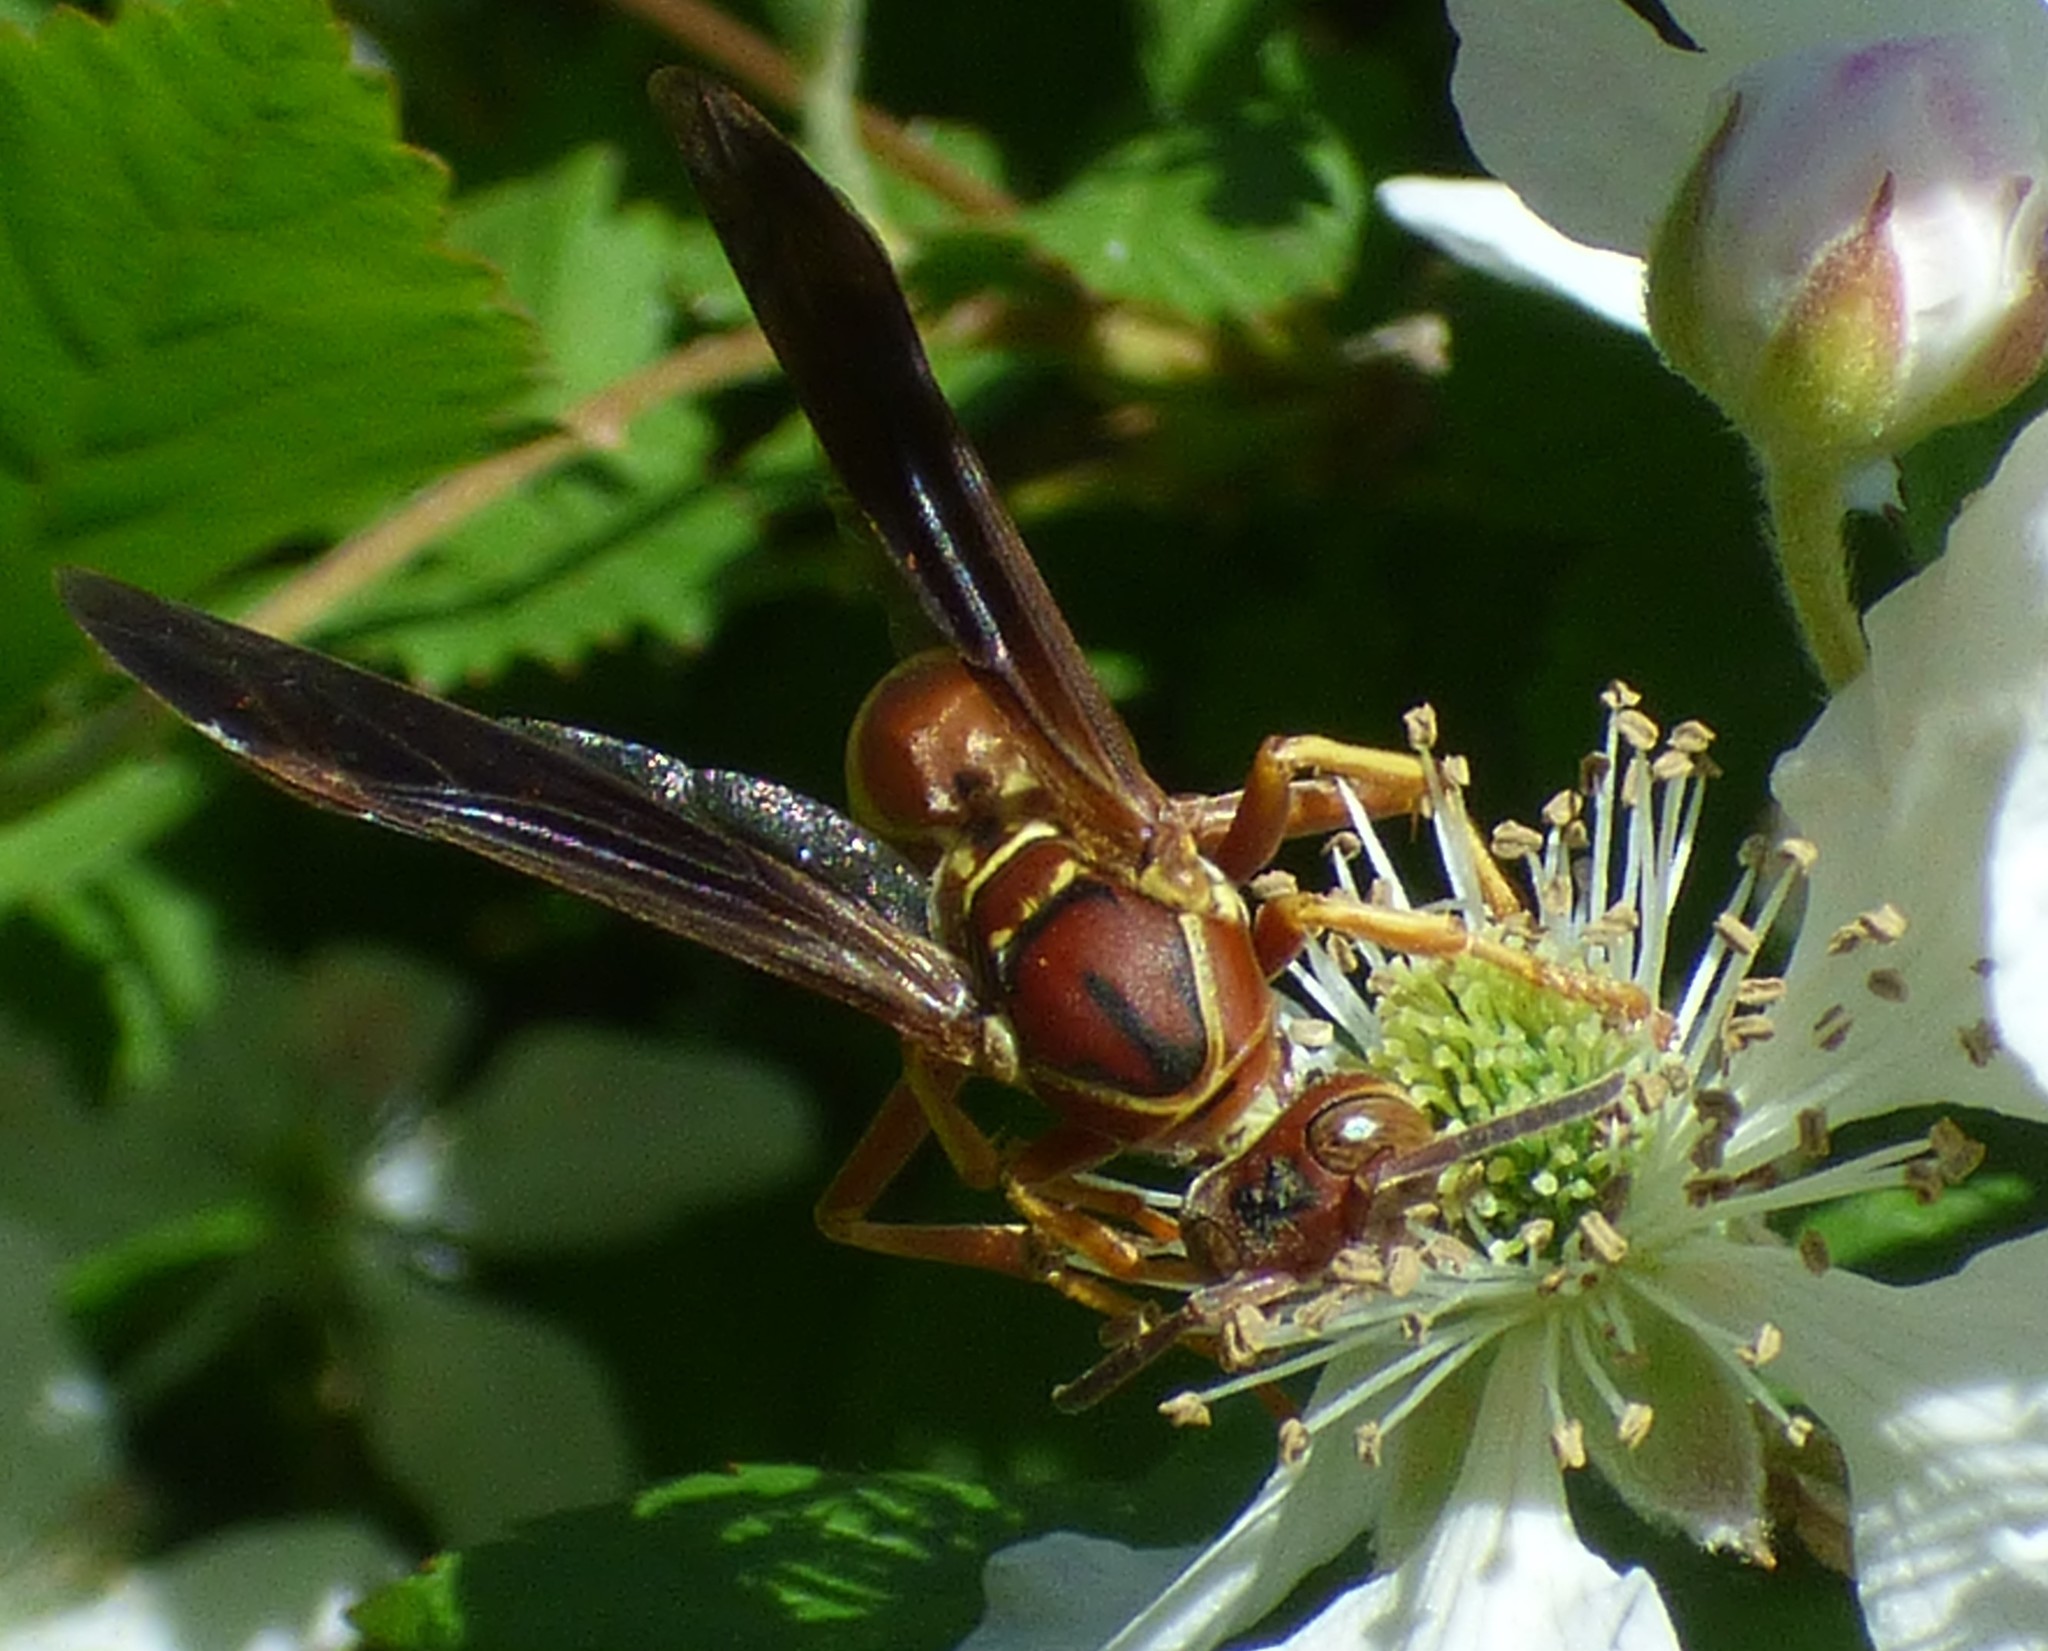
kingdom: Animalia
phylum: Arthropoda
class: Insecta
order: Hymenoptera
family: Eumenidae
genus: Polistes
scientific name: Polistes bellicosus
